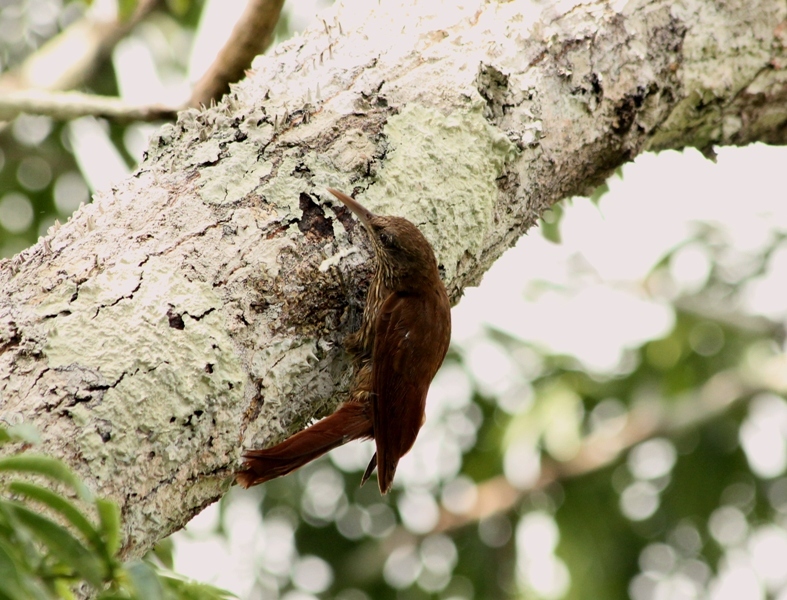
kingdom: Animalia
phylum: Chordata
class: Aves
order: Passeriformes
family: Furnariidae
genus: Lepidocolaptes
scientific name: Lepidocolaptes duidae
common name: Duida woodcreeper
